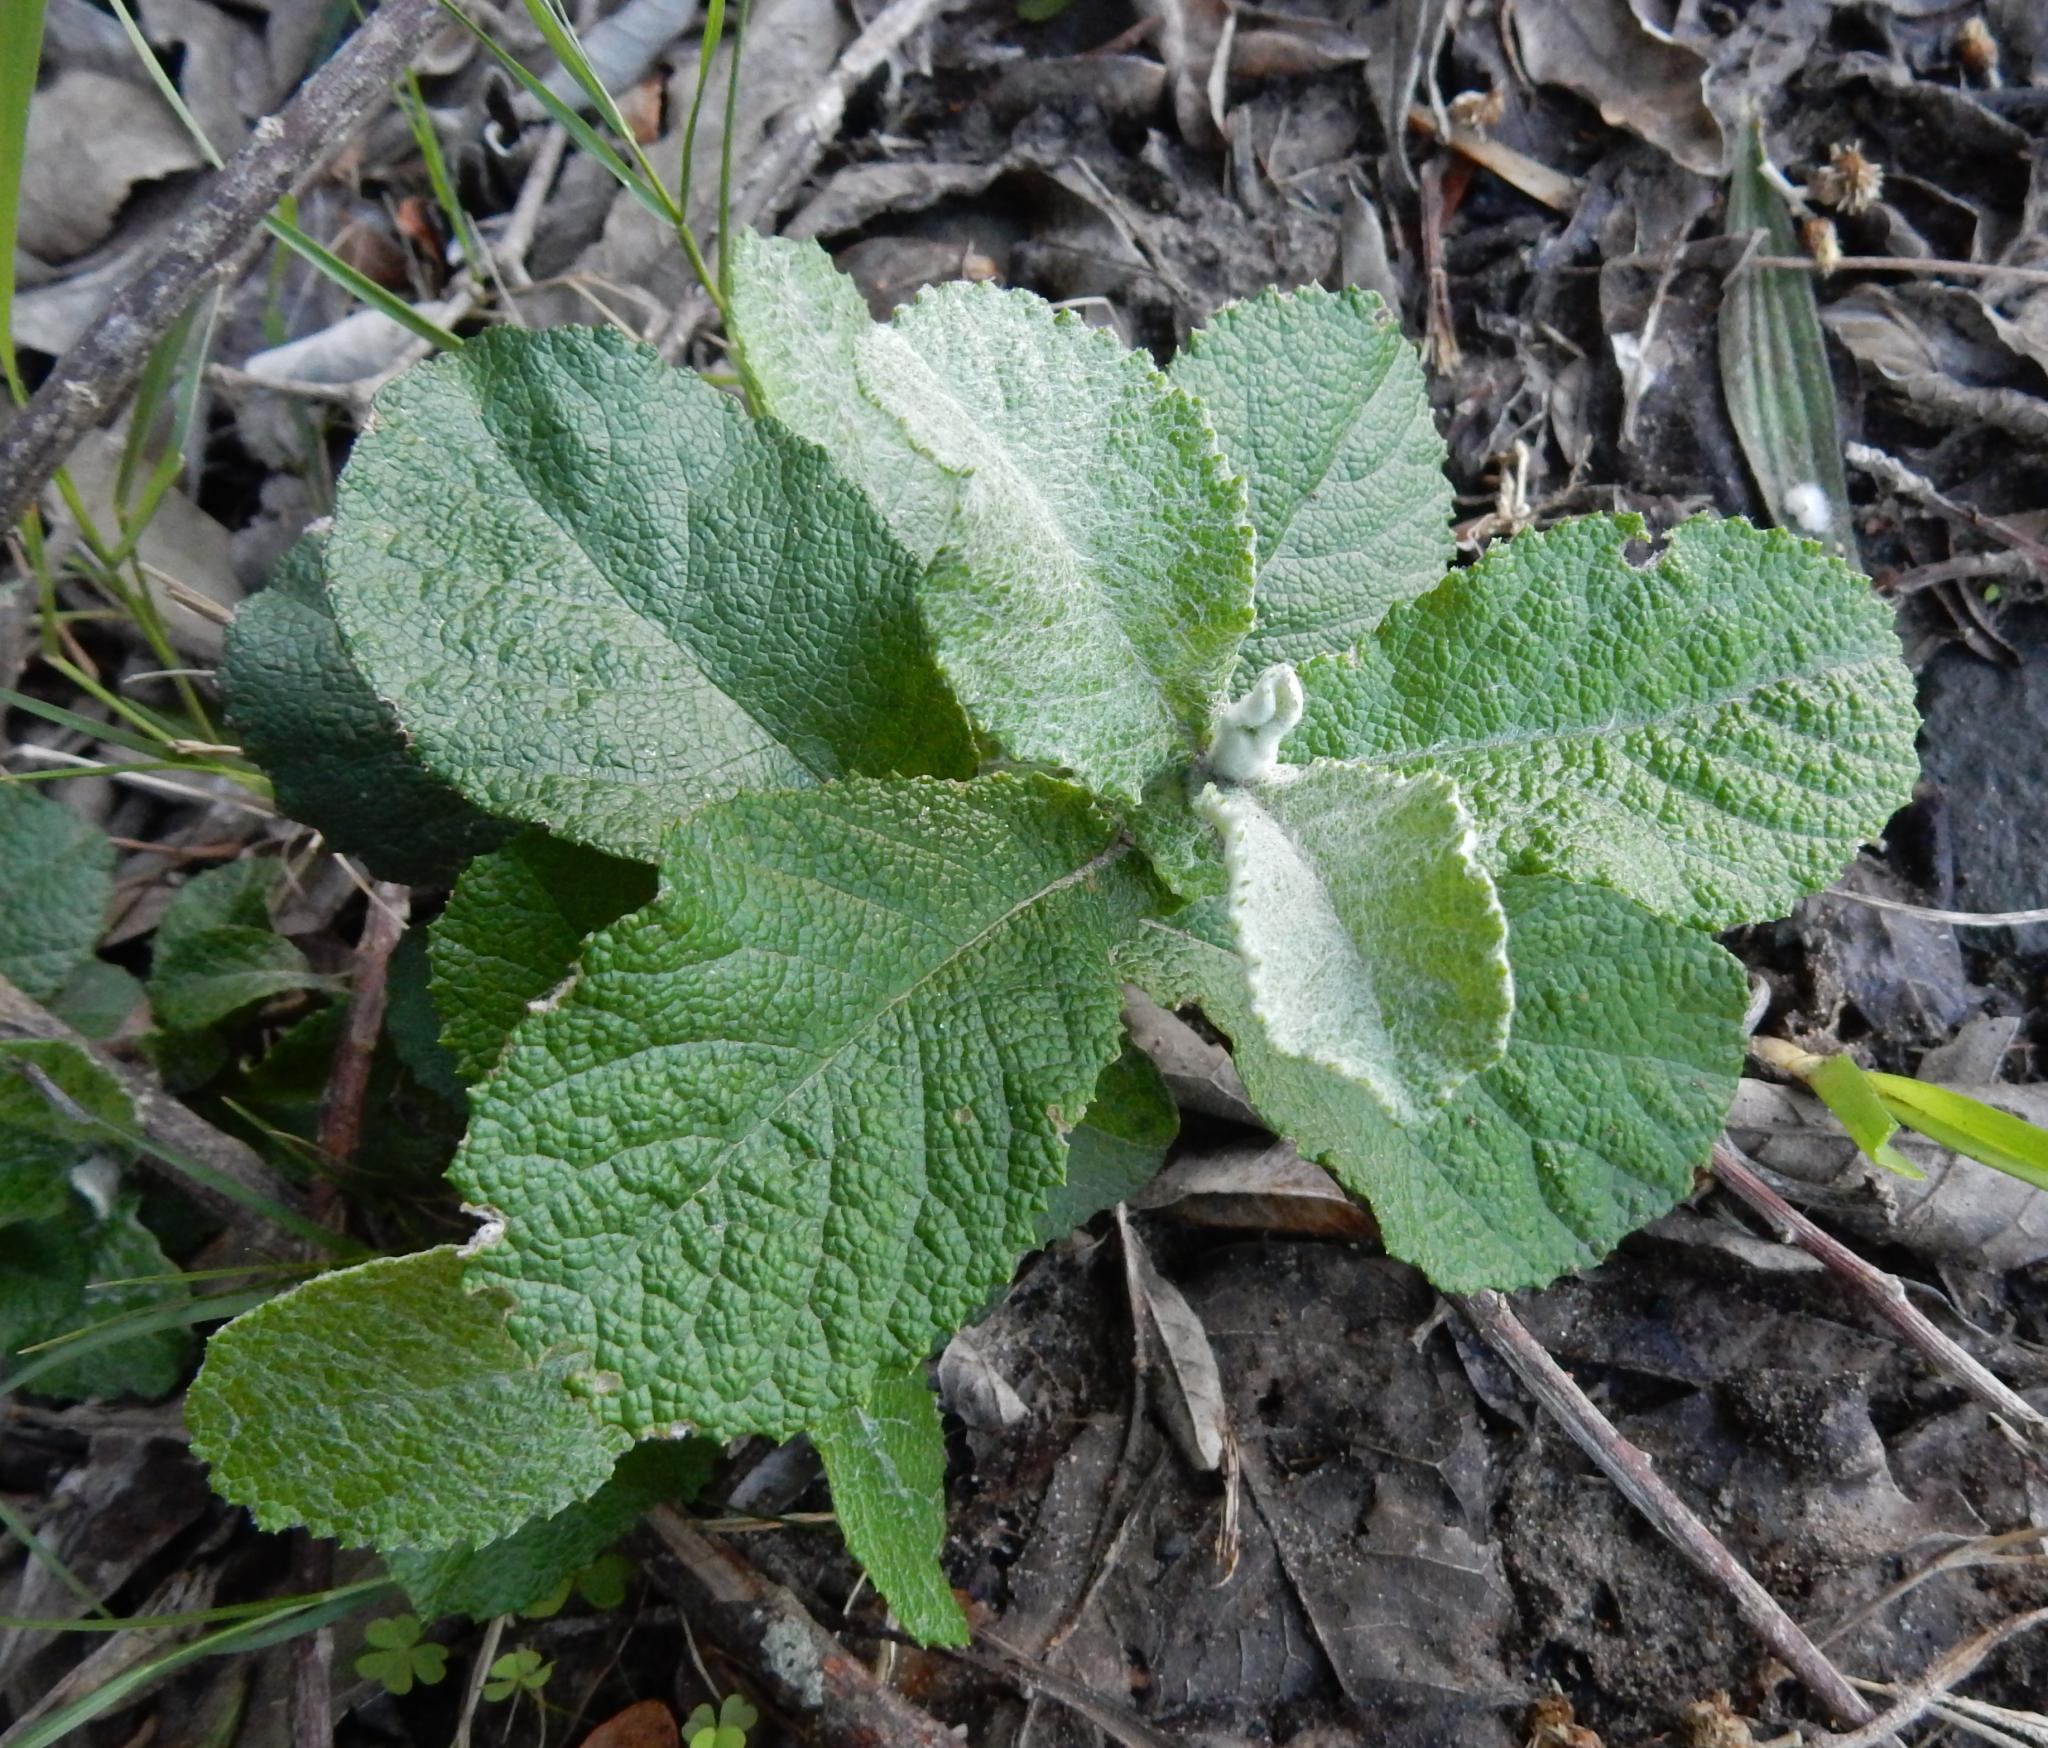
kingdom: Plantae
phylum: Tracheophyta
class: Magnoliopsida
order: Asterales
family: Asteraceae
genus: Tarchonanthus
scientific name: Tarchonanthus littoralis
